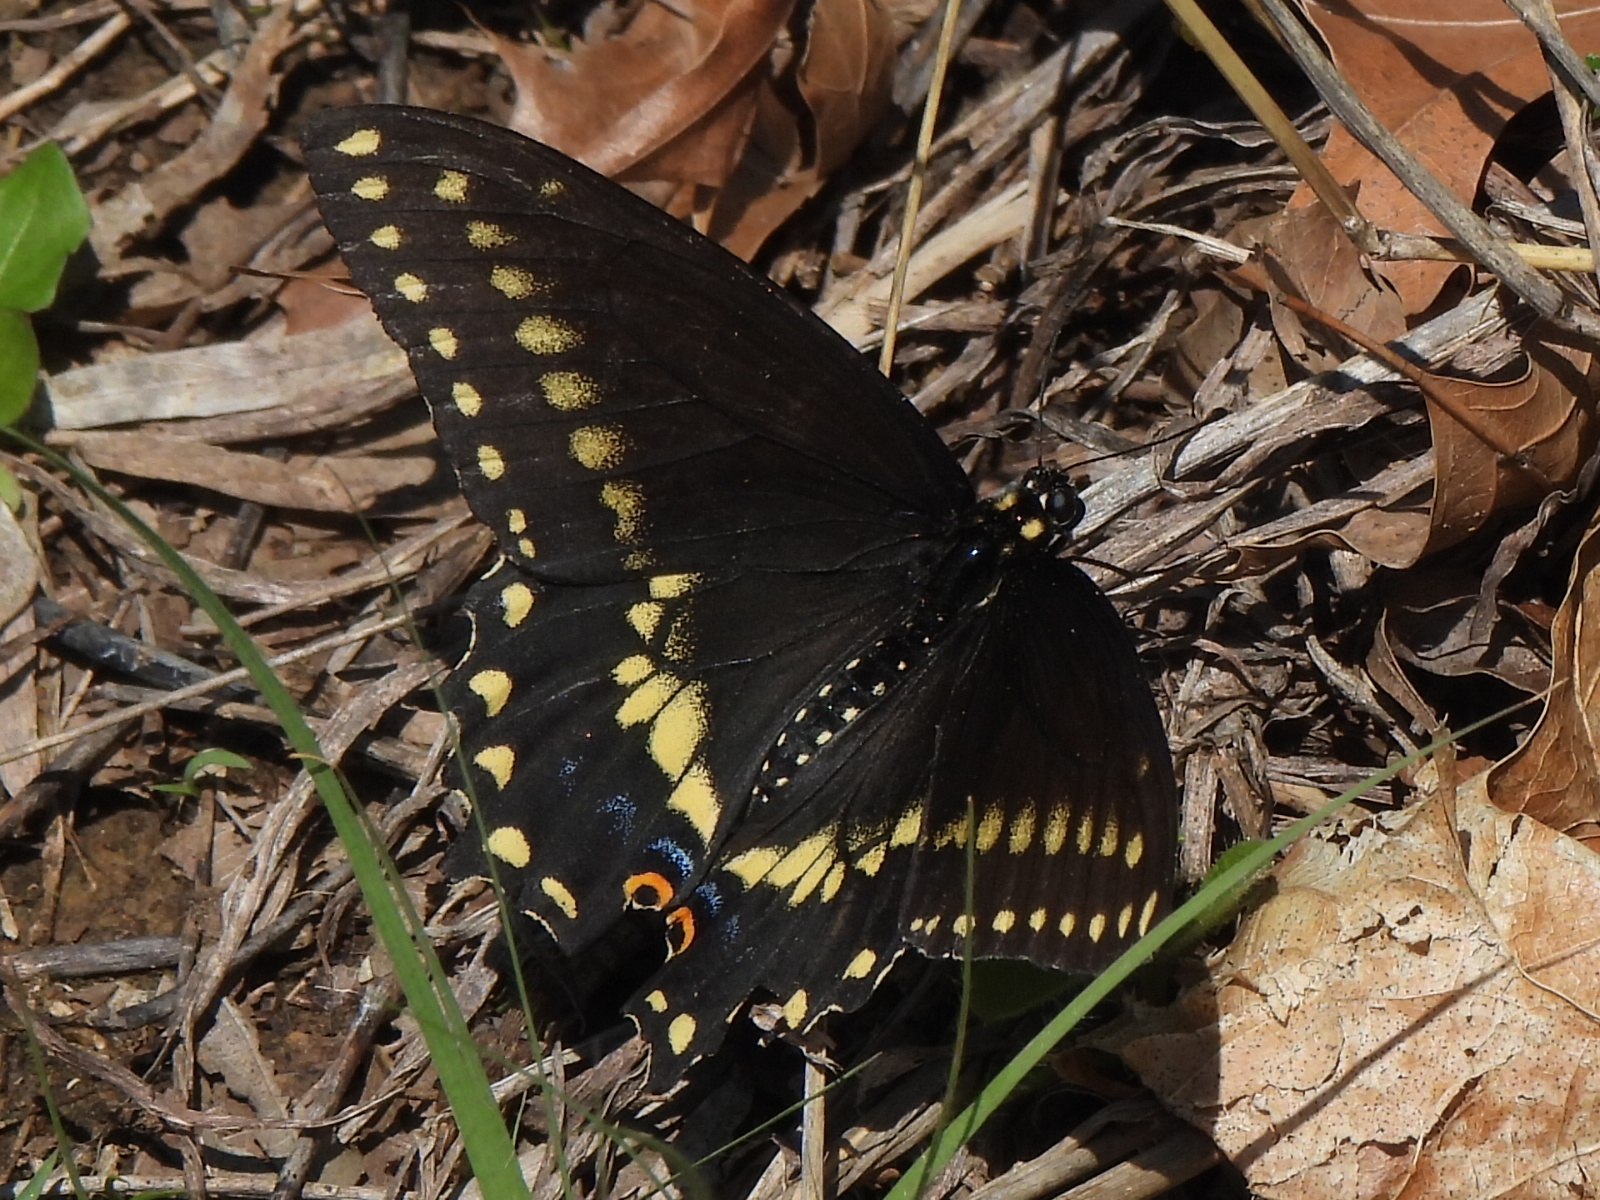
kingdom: Animalia
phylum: Arthropoda
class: Insecta
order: Lepidoptera
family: Papilionidae
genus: Papilio
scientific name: Papilio polyxenes
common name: Black swallowtail
